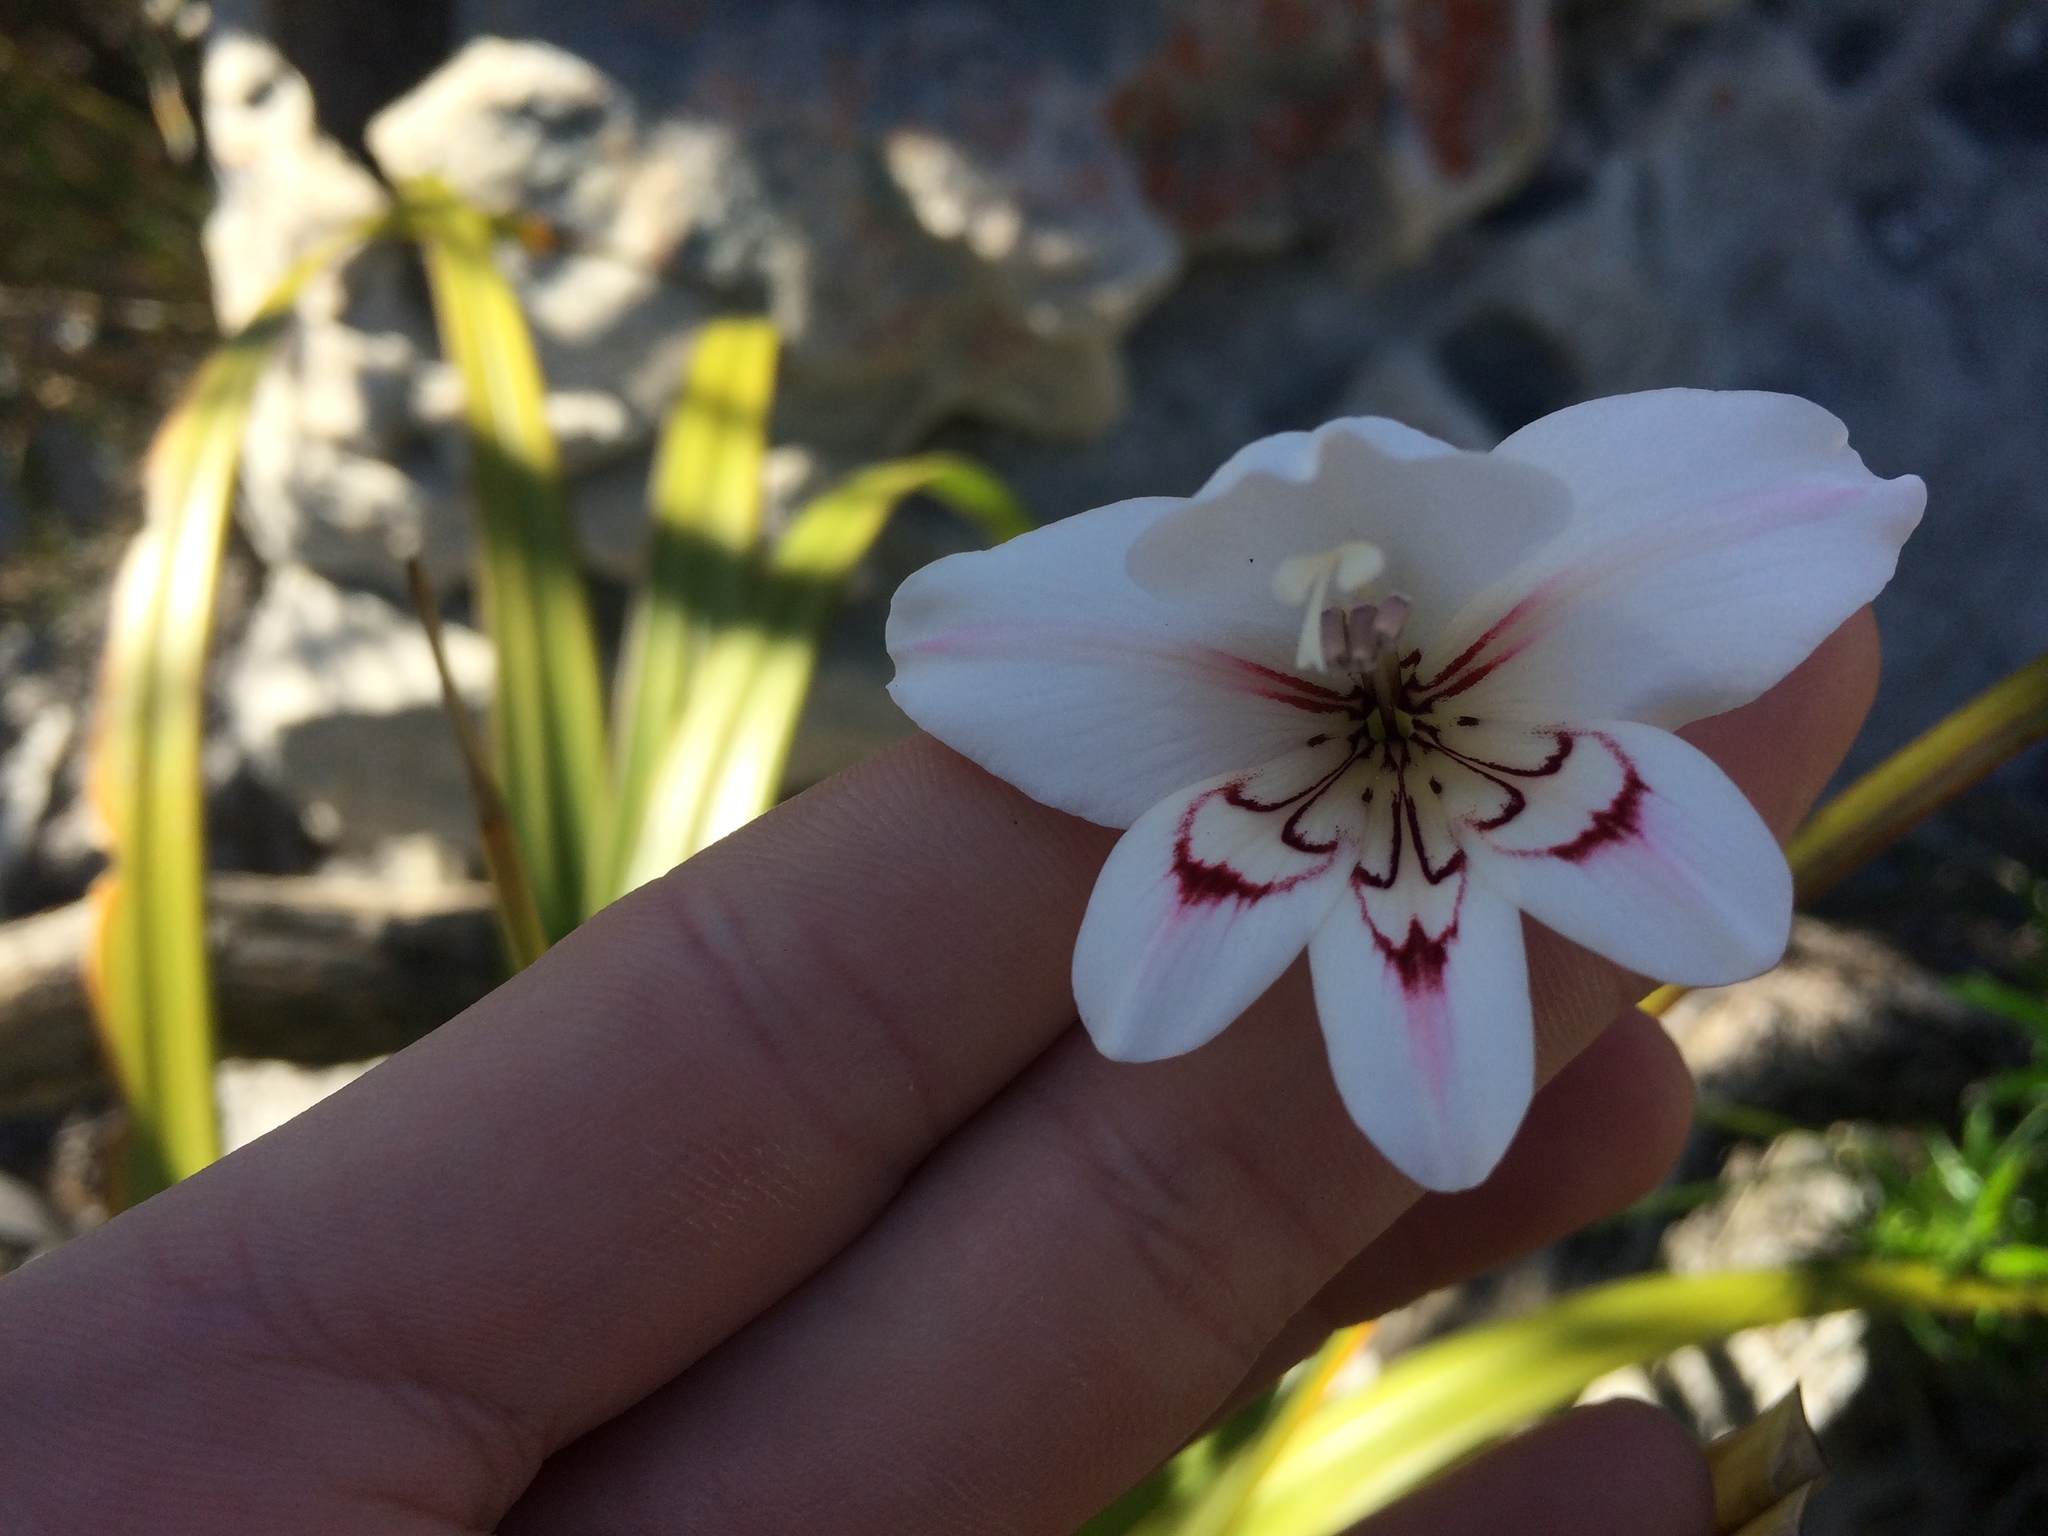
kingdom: Plantae
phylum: Tracheophyta
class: Liliopsida
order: Asparagales
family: Iridaceae
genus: Gladiolus
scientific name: Gladiolus debilis
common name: Painted-lady
